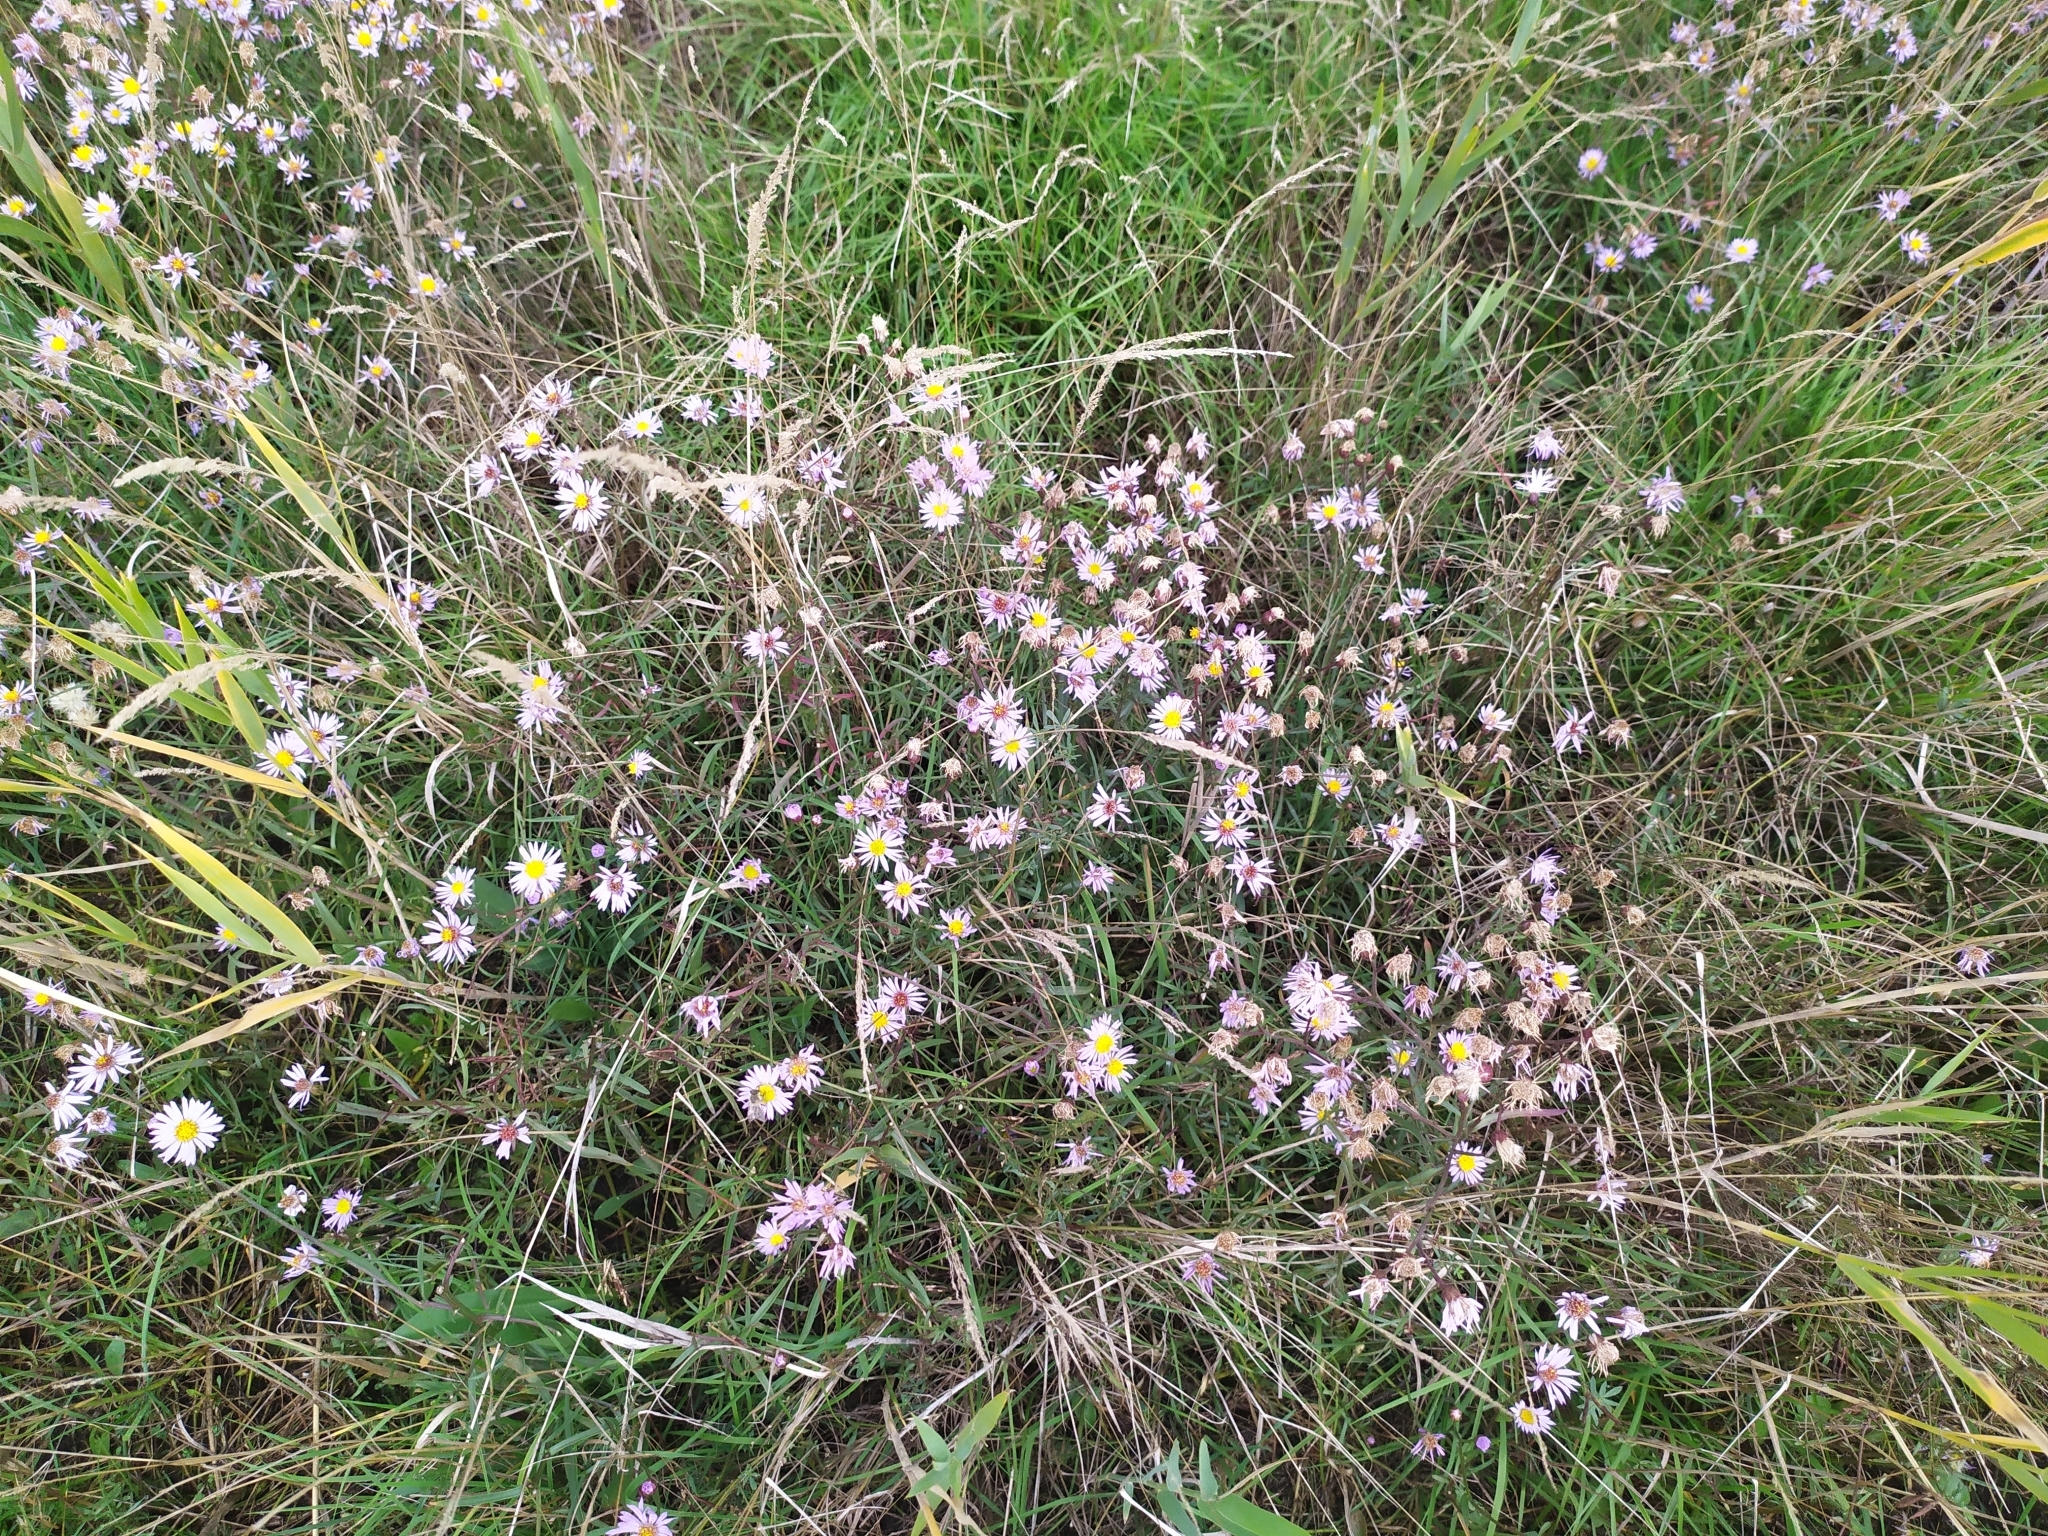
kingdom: Plantae
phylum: Tracheophyta
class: Magnoliopsida
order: Asterales
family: Asteraceae
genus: Tripolium
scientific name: Tripolium pannonicum
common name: Sea aster
